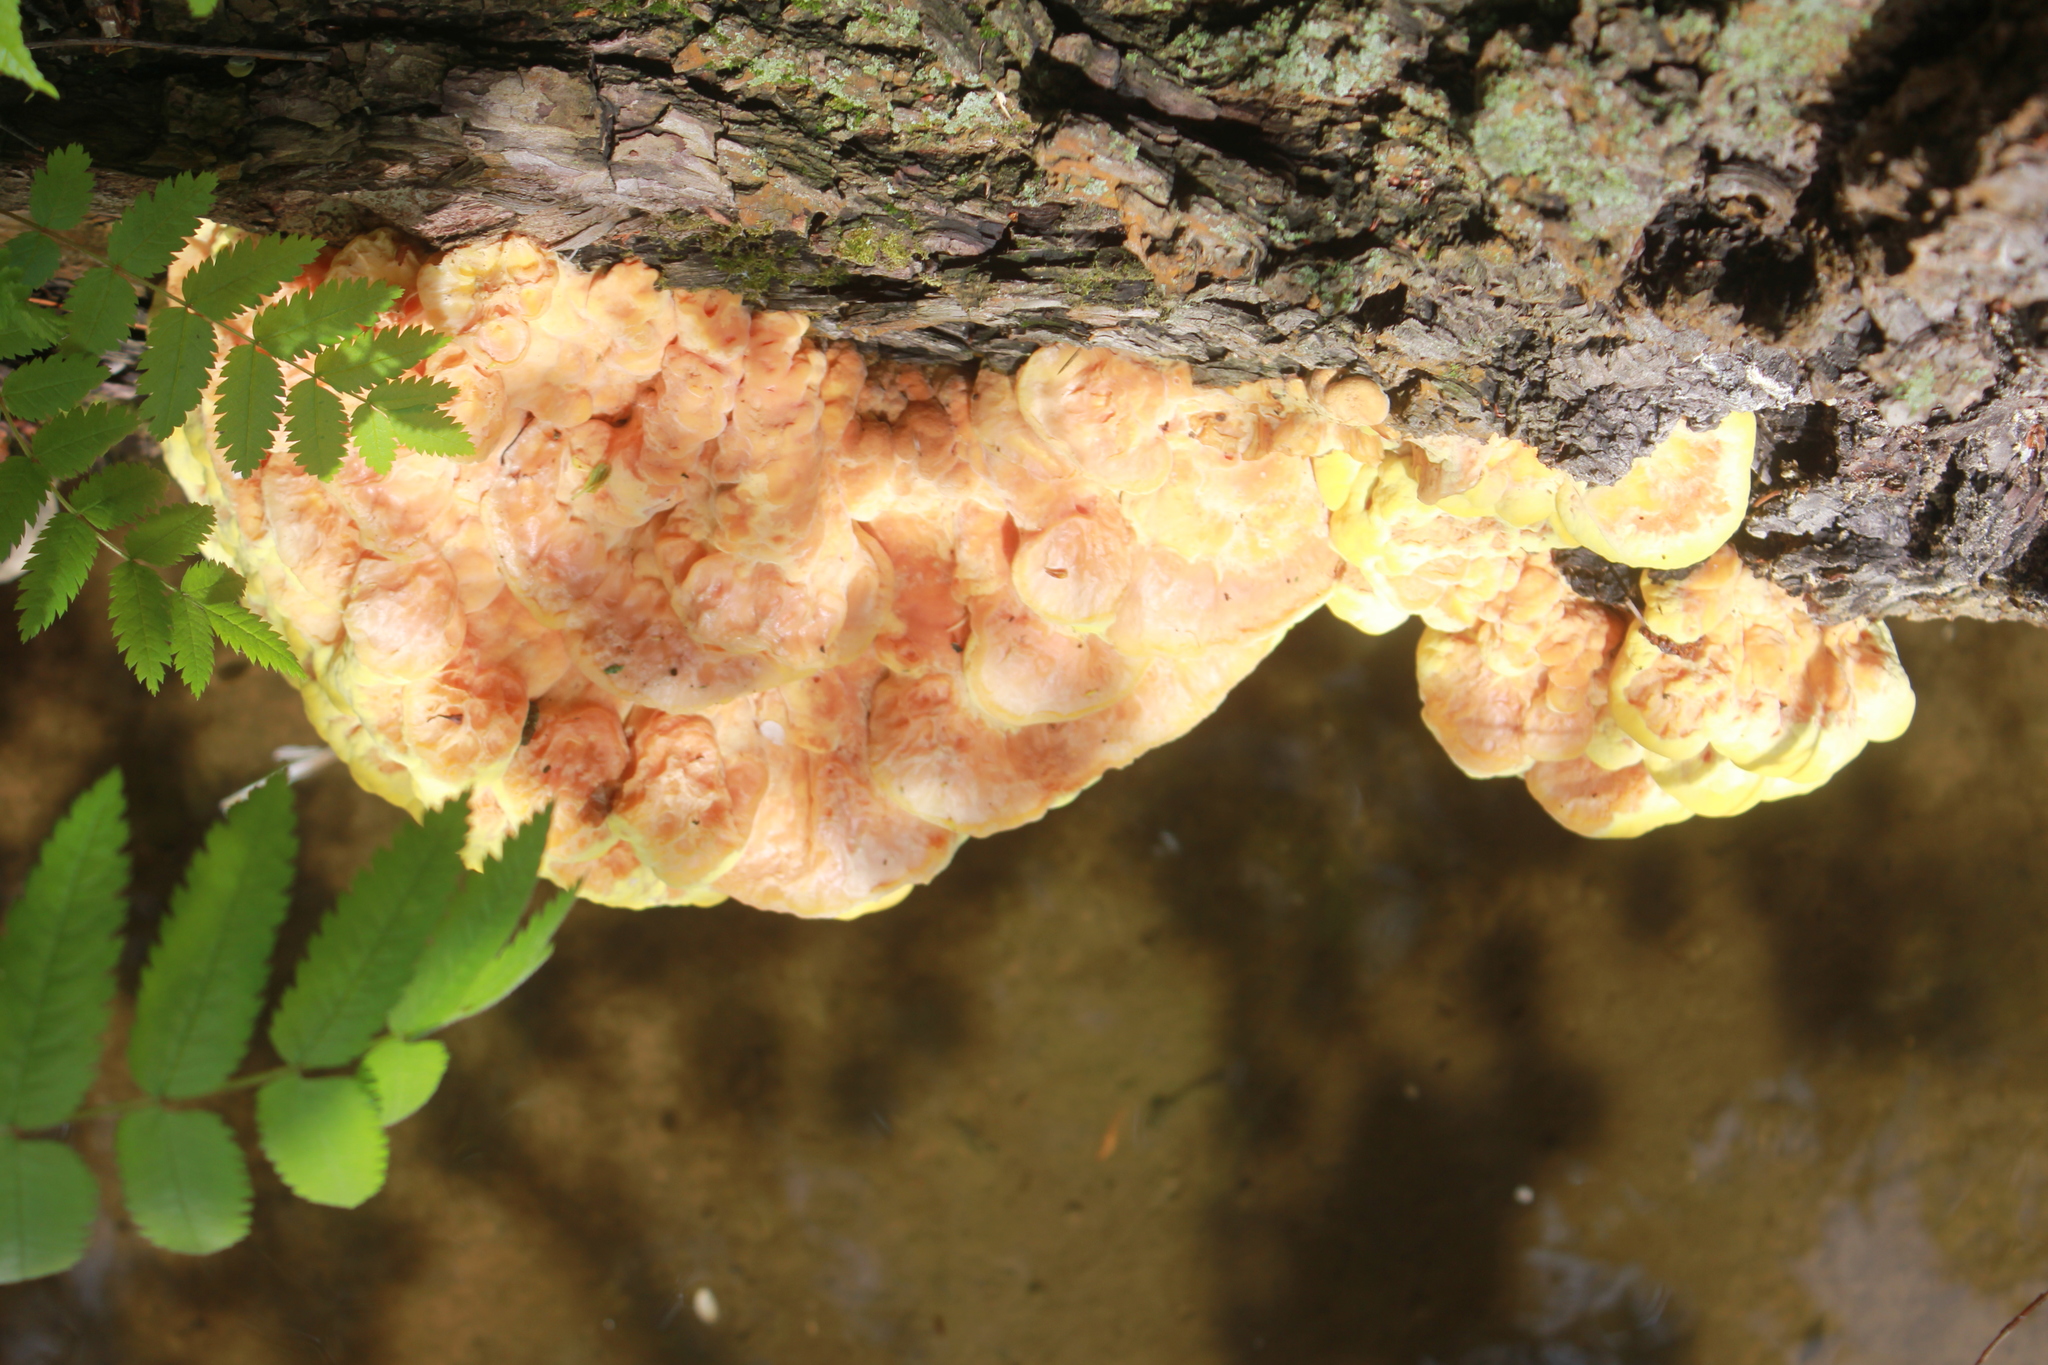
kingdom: Fungi
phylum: Basidiomycota
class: Agaricomycetes
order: Polyporales
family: Laetiporaceae
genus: Laetiporus
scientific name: Laetiporus sulphureus
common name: Chicken of the woods
